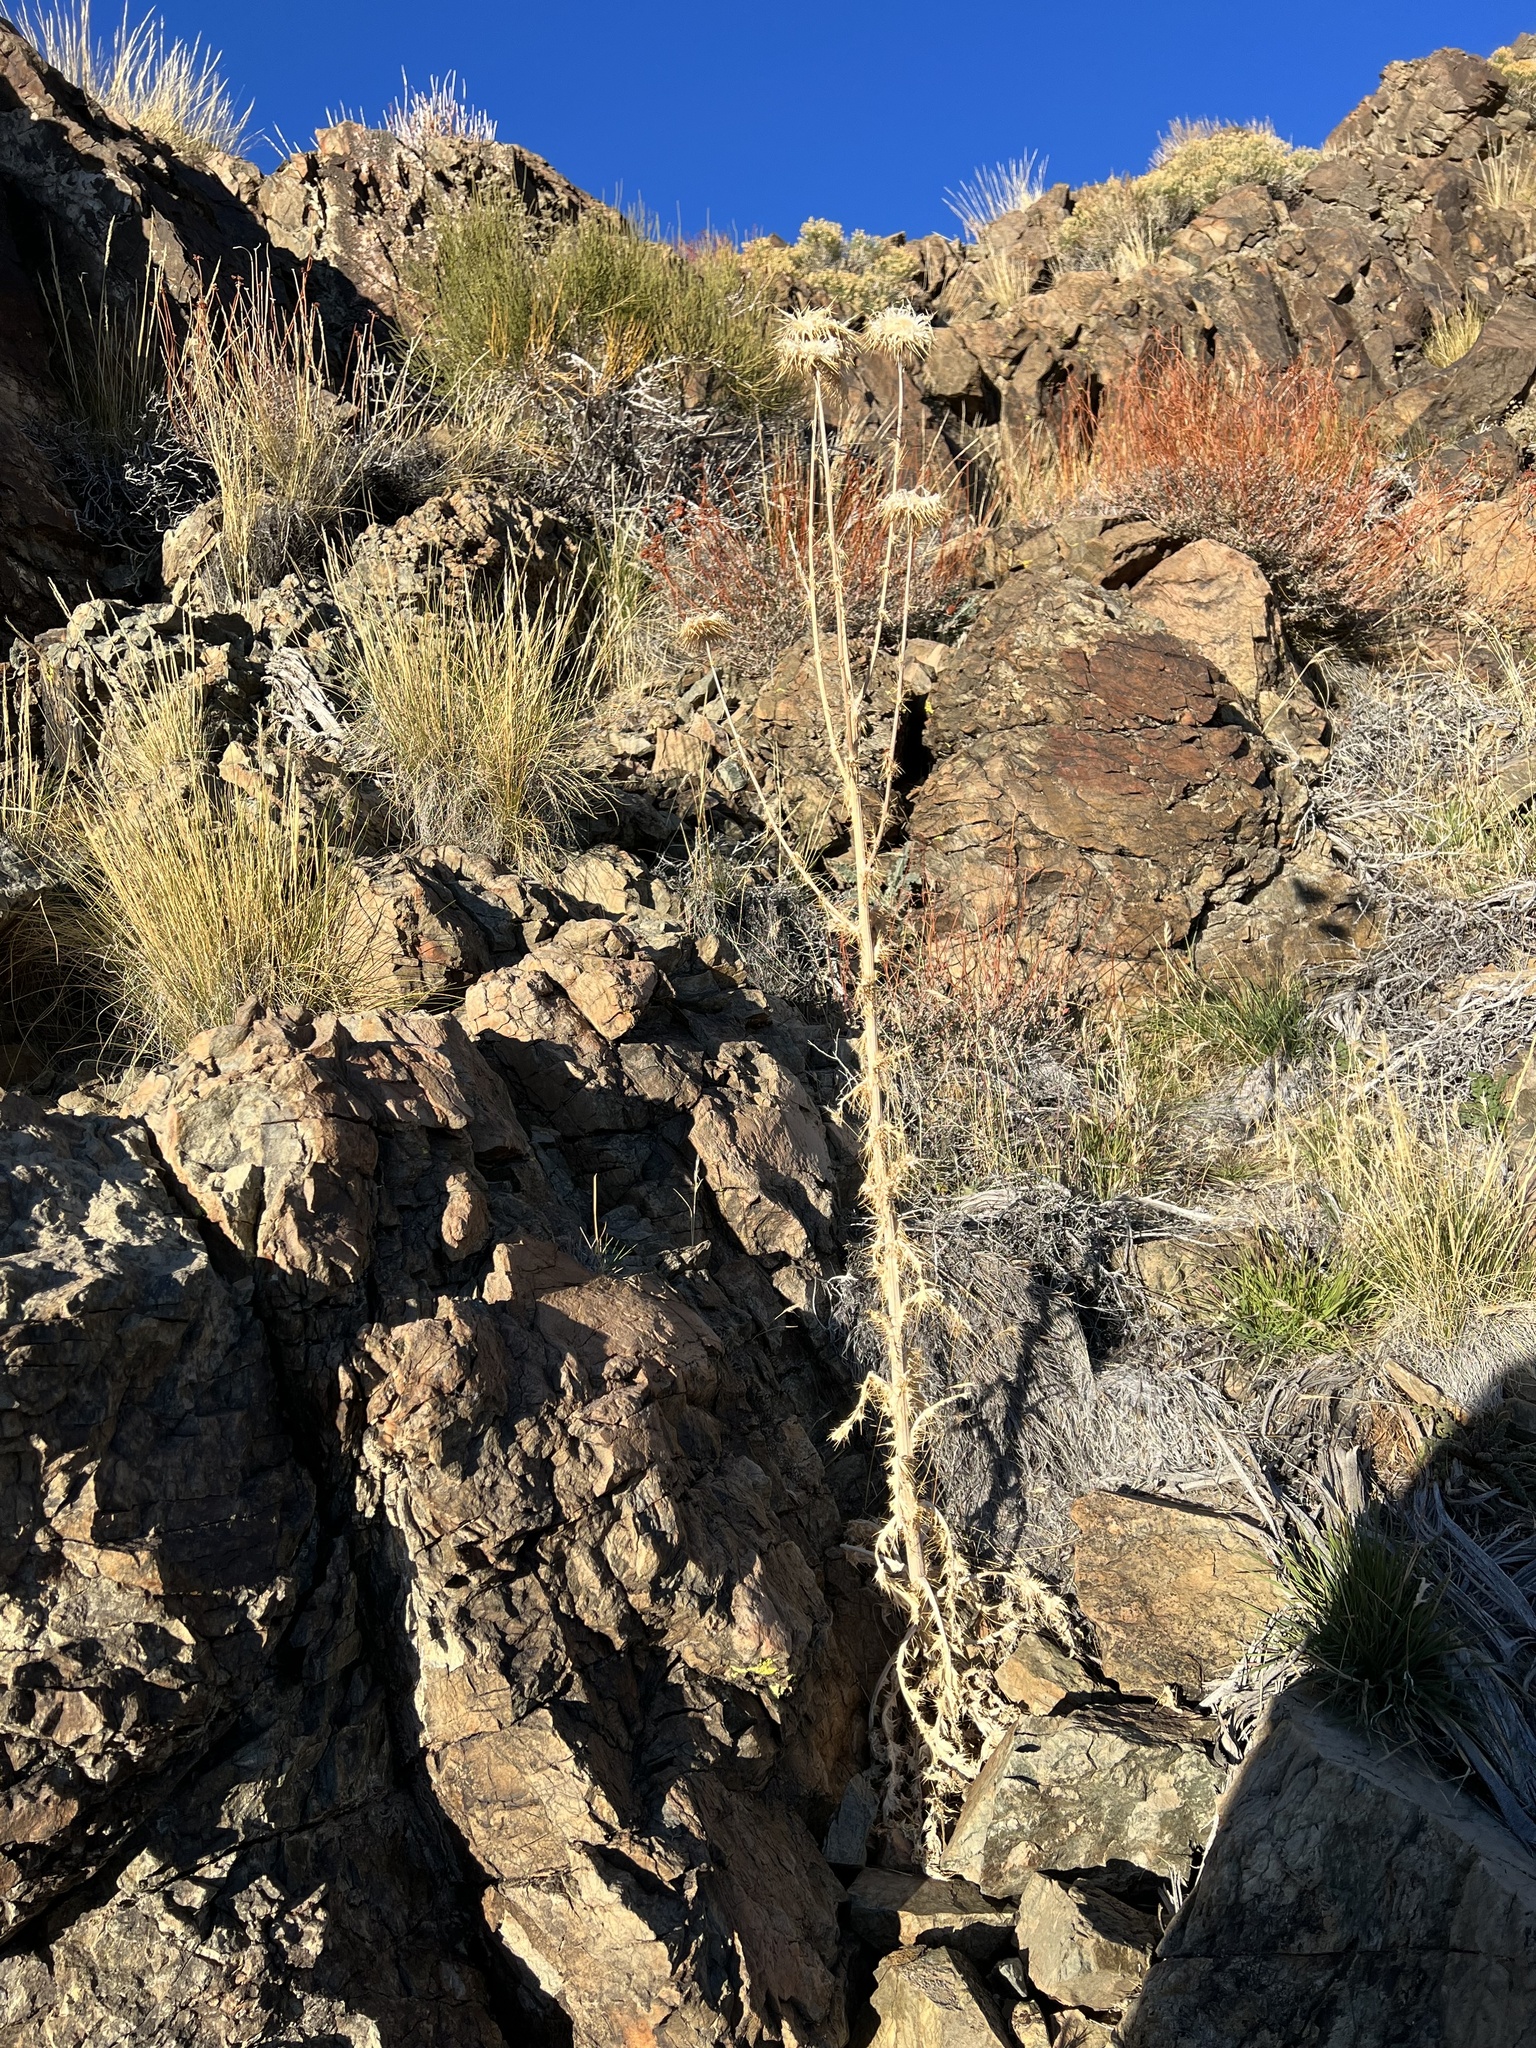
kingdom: Plantae
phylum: Tracheophyta
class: Magnoliopsida
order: Asterales
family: Asteraceae
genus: Cirsium
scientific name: Cirsium occidentale
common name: Western thistle
